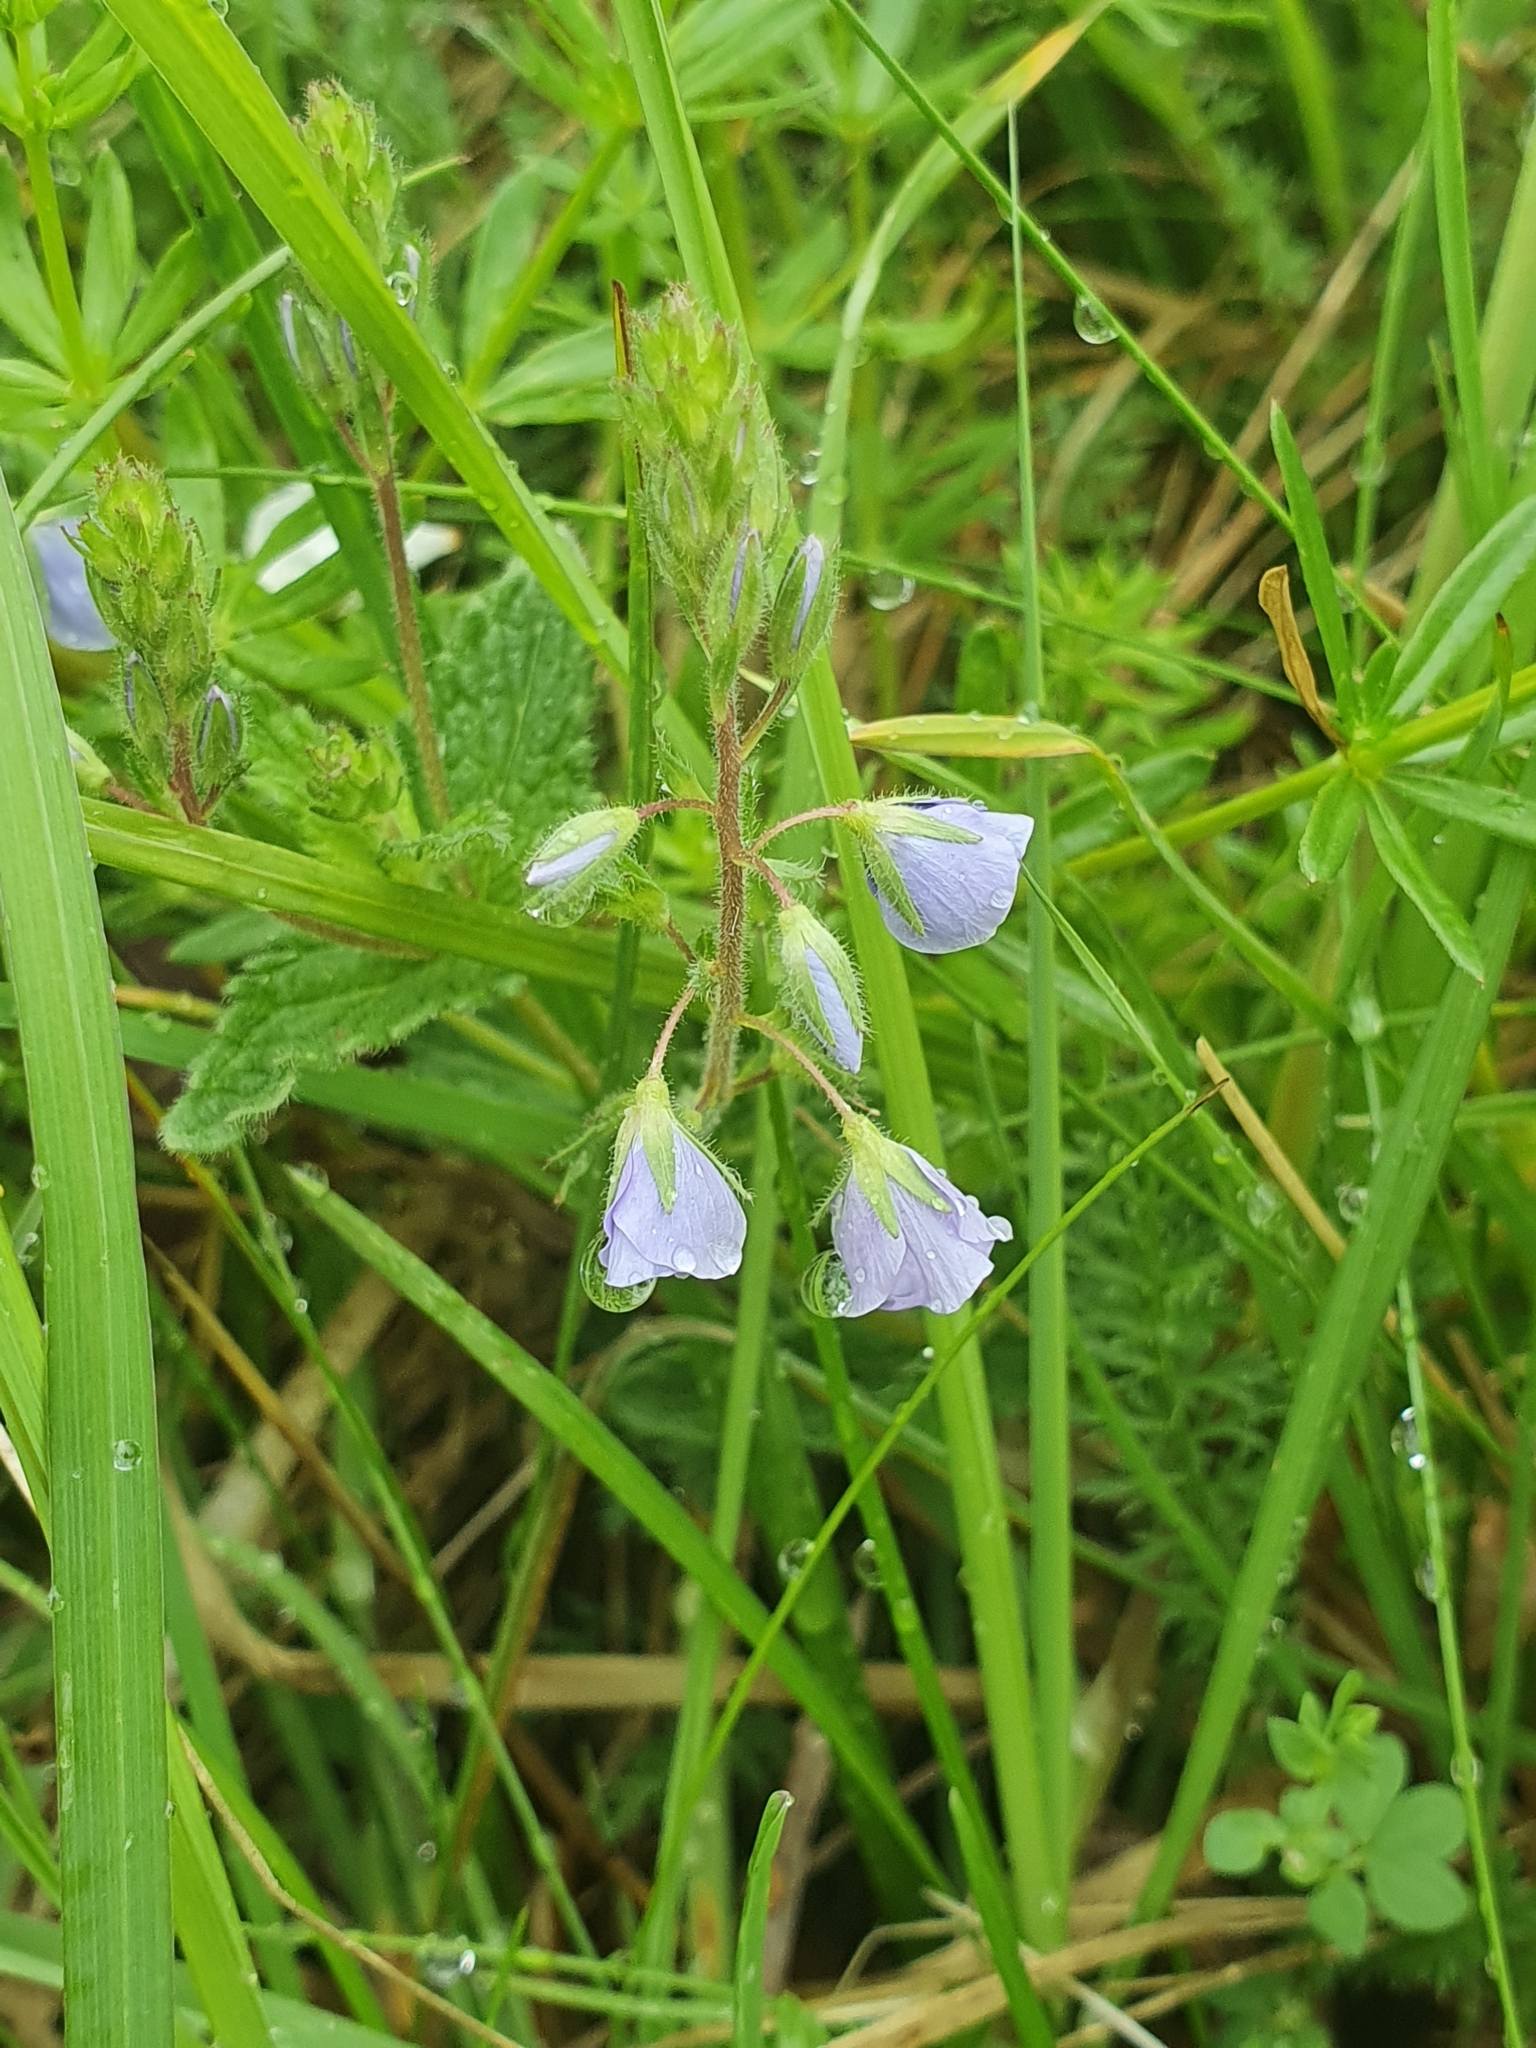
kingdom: Plantae
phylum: Tracheophyta
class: Magnoliopsida
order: Lamiales
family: Plantaginaceae
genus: Veronica
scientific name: Veronica chamaedrys
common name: Germander speedwell
